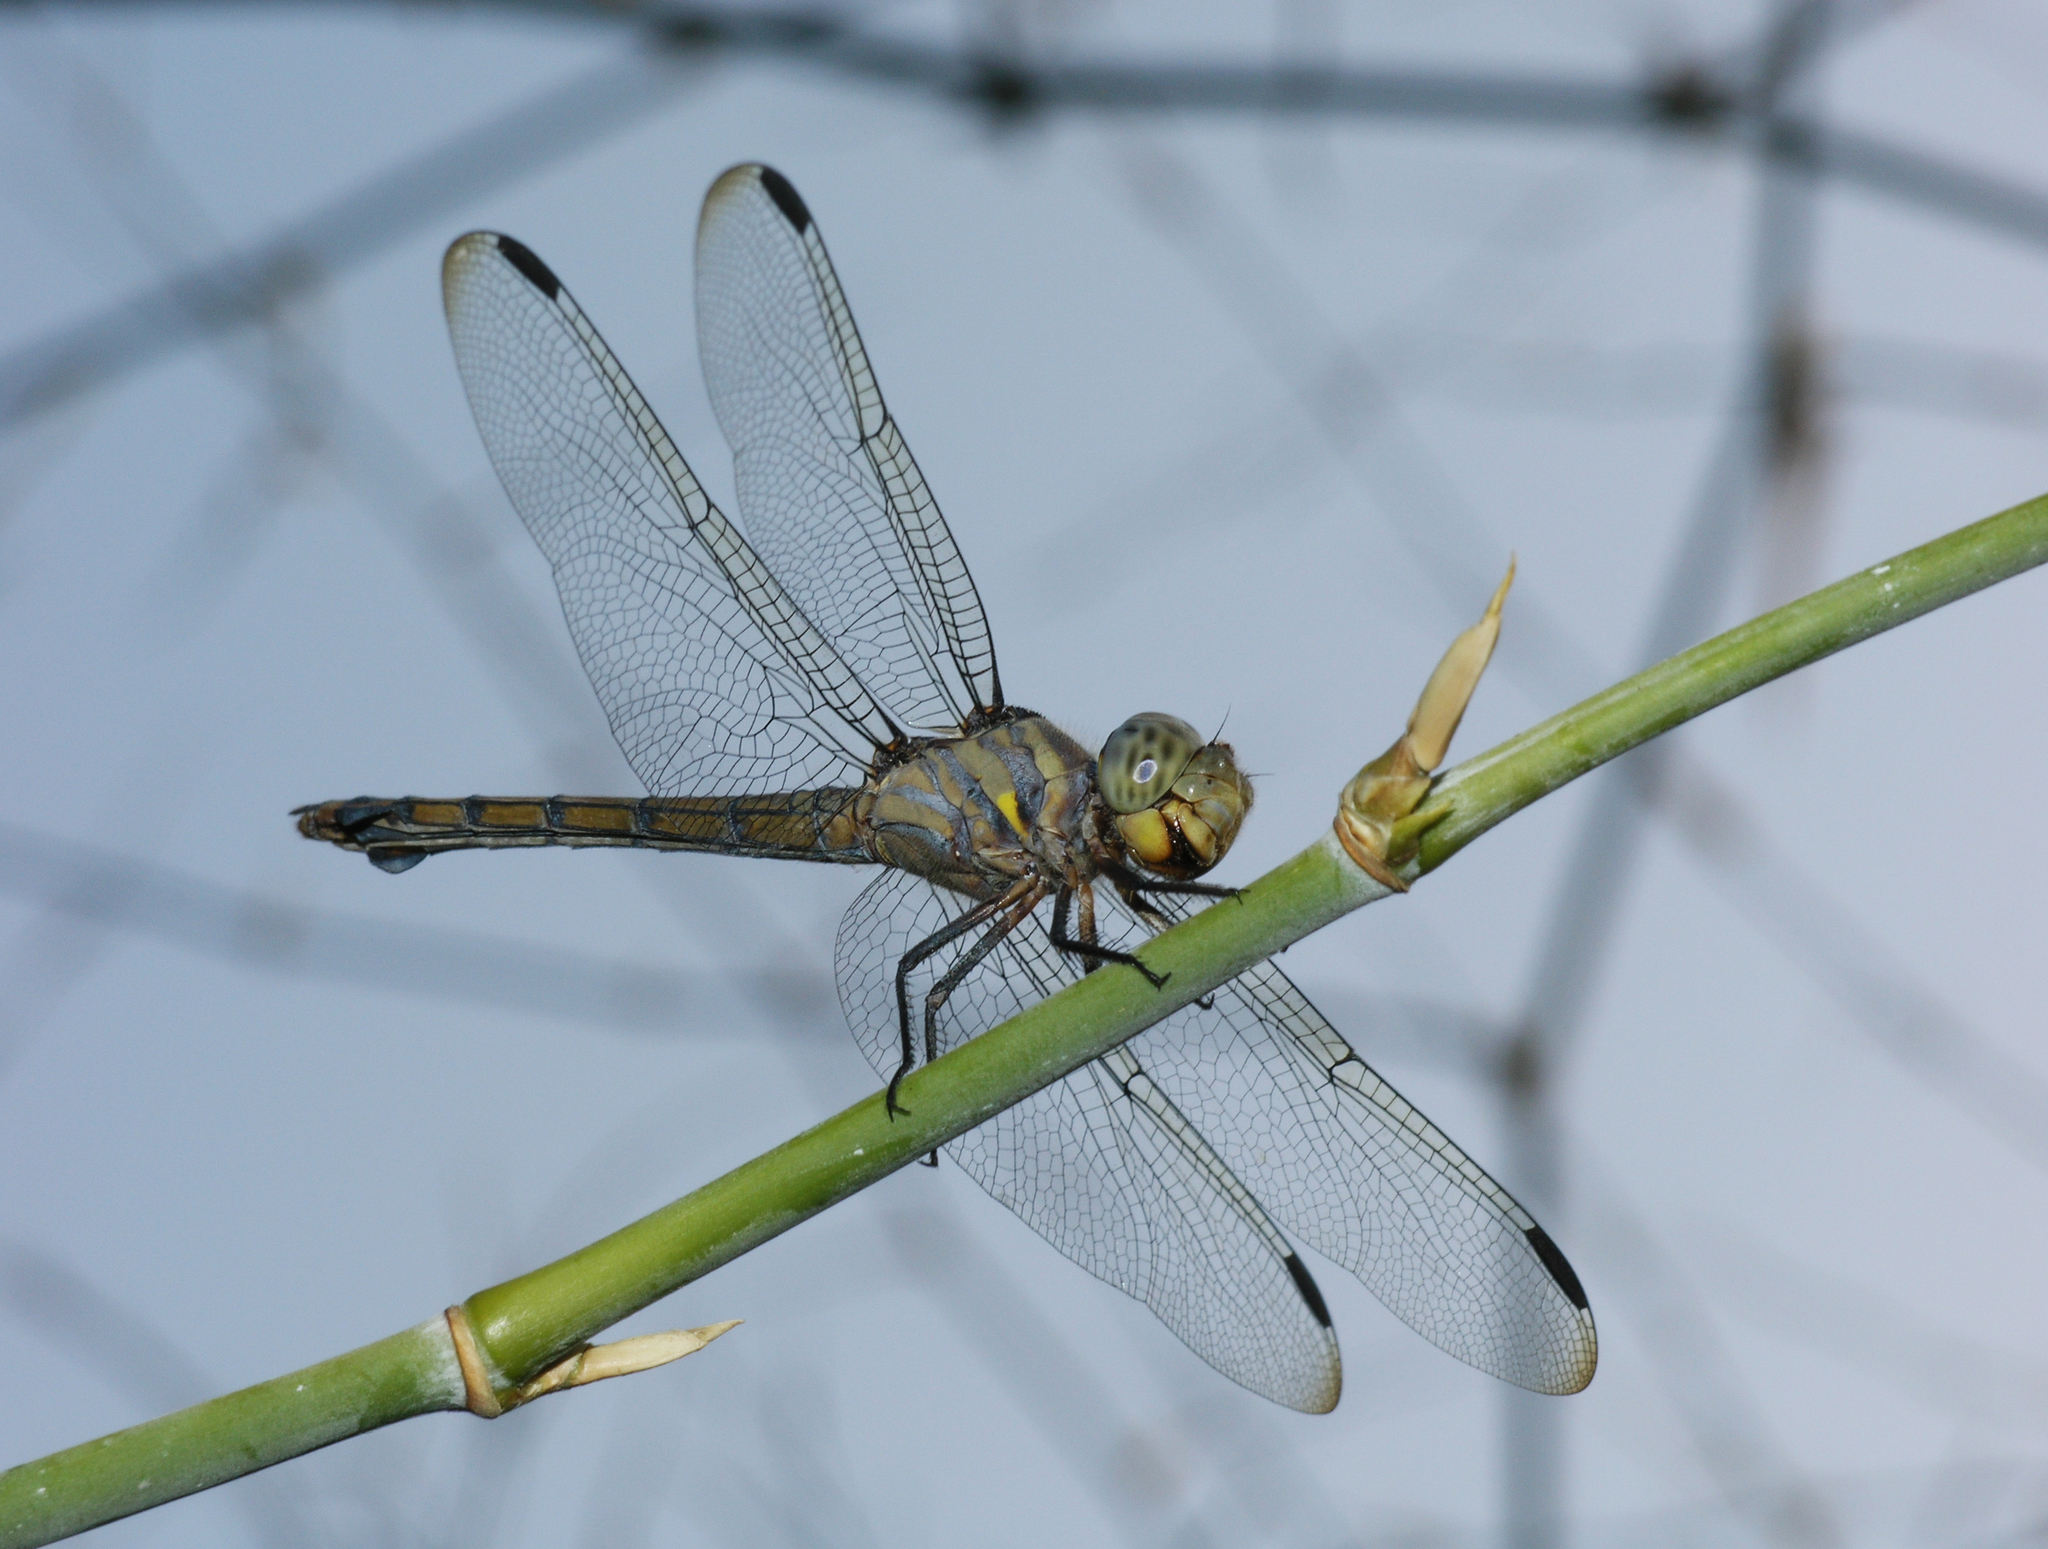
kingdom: Animalia
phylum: Arthropoda
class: Insecta
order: Odonata
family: Libellulidae
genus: Potamarcha
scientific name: Potamarcha congener
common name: Blue chaser
